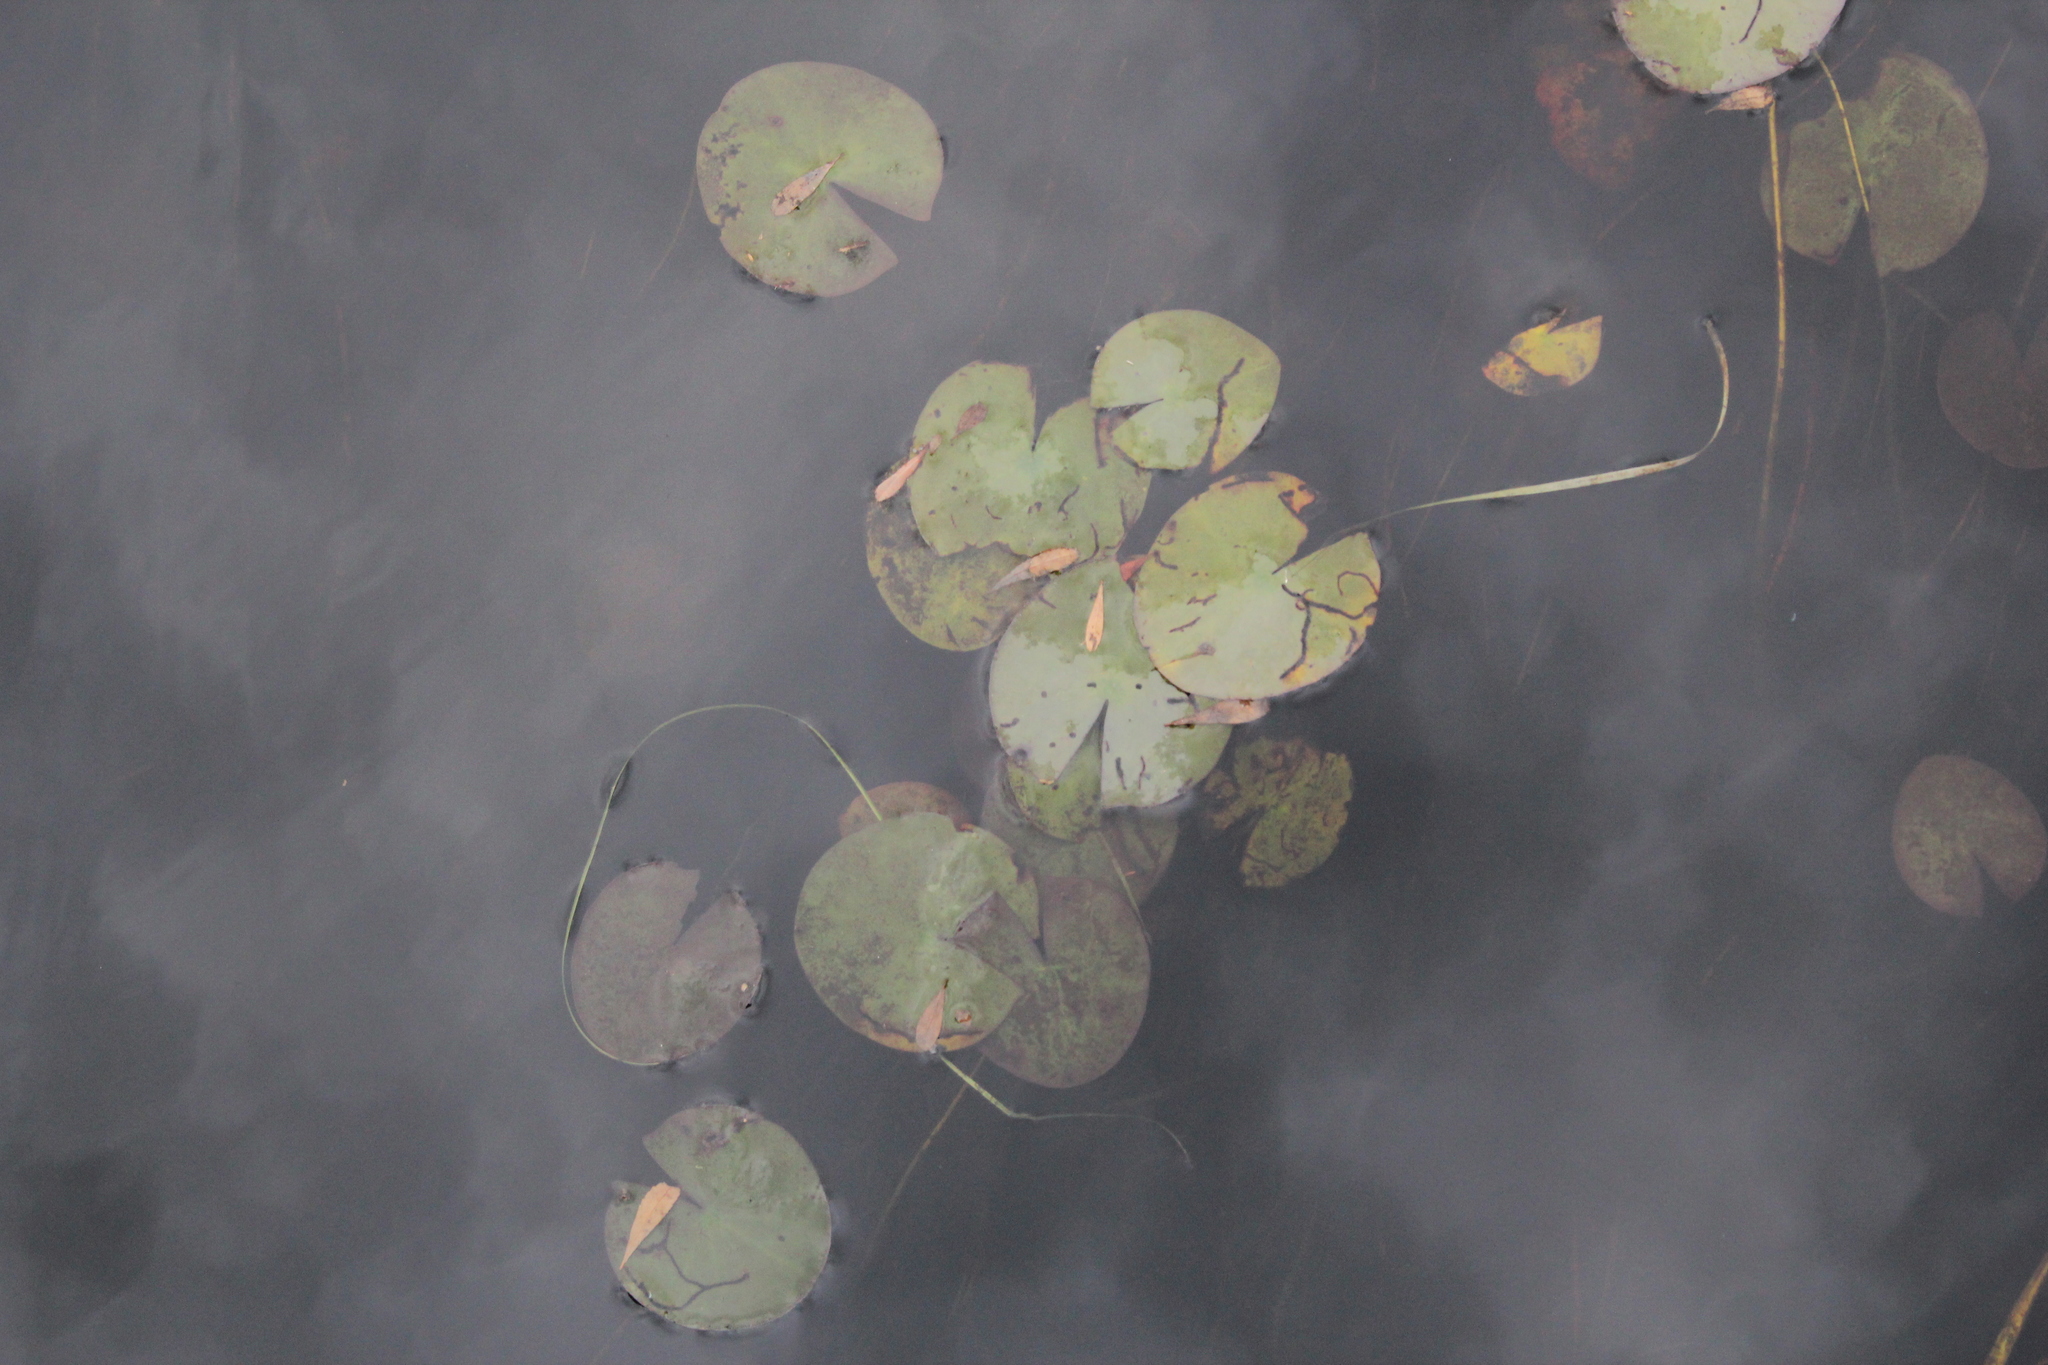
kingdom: Plantae
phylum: Tracheophyta
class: Magnoliopsida
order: Nymphaeales
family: Nymphaeaceae
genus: Nymphaea
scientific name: Nymphaea odorata
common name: Fragrant water-lily
